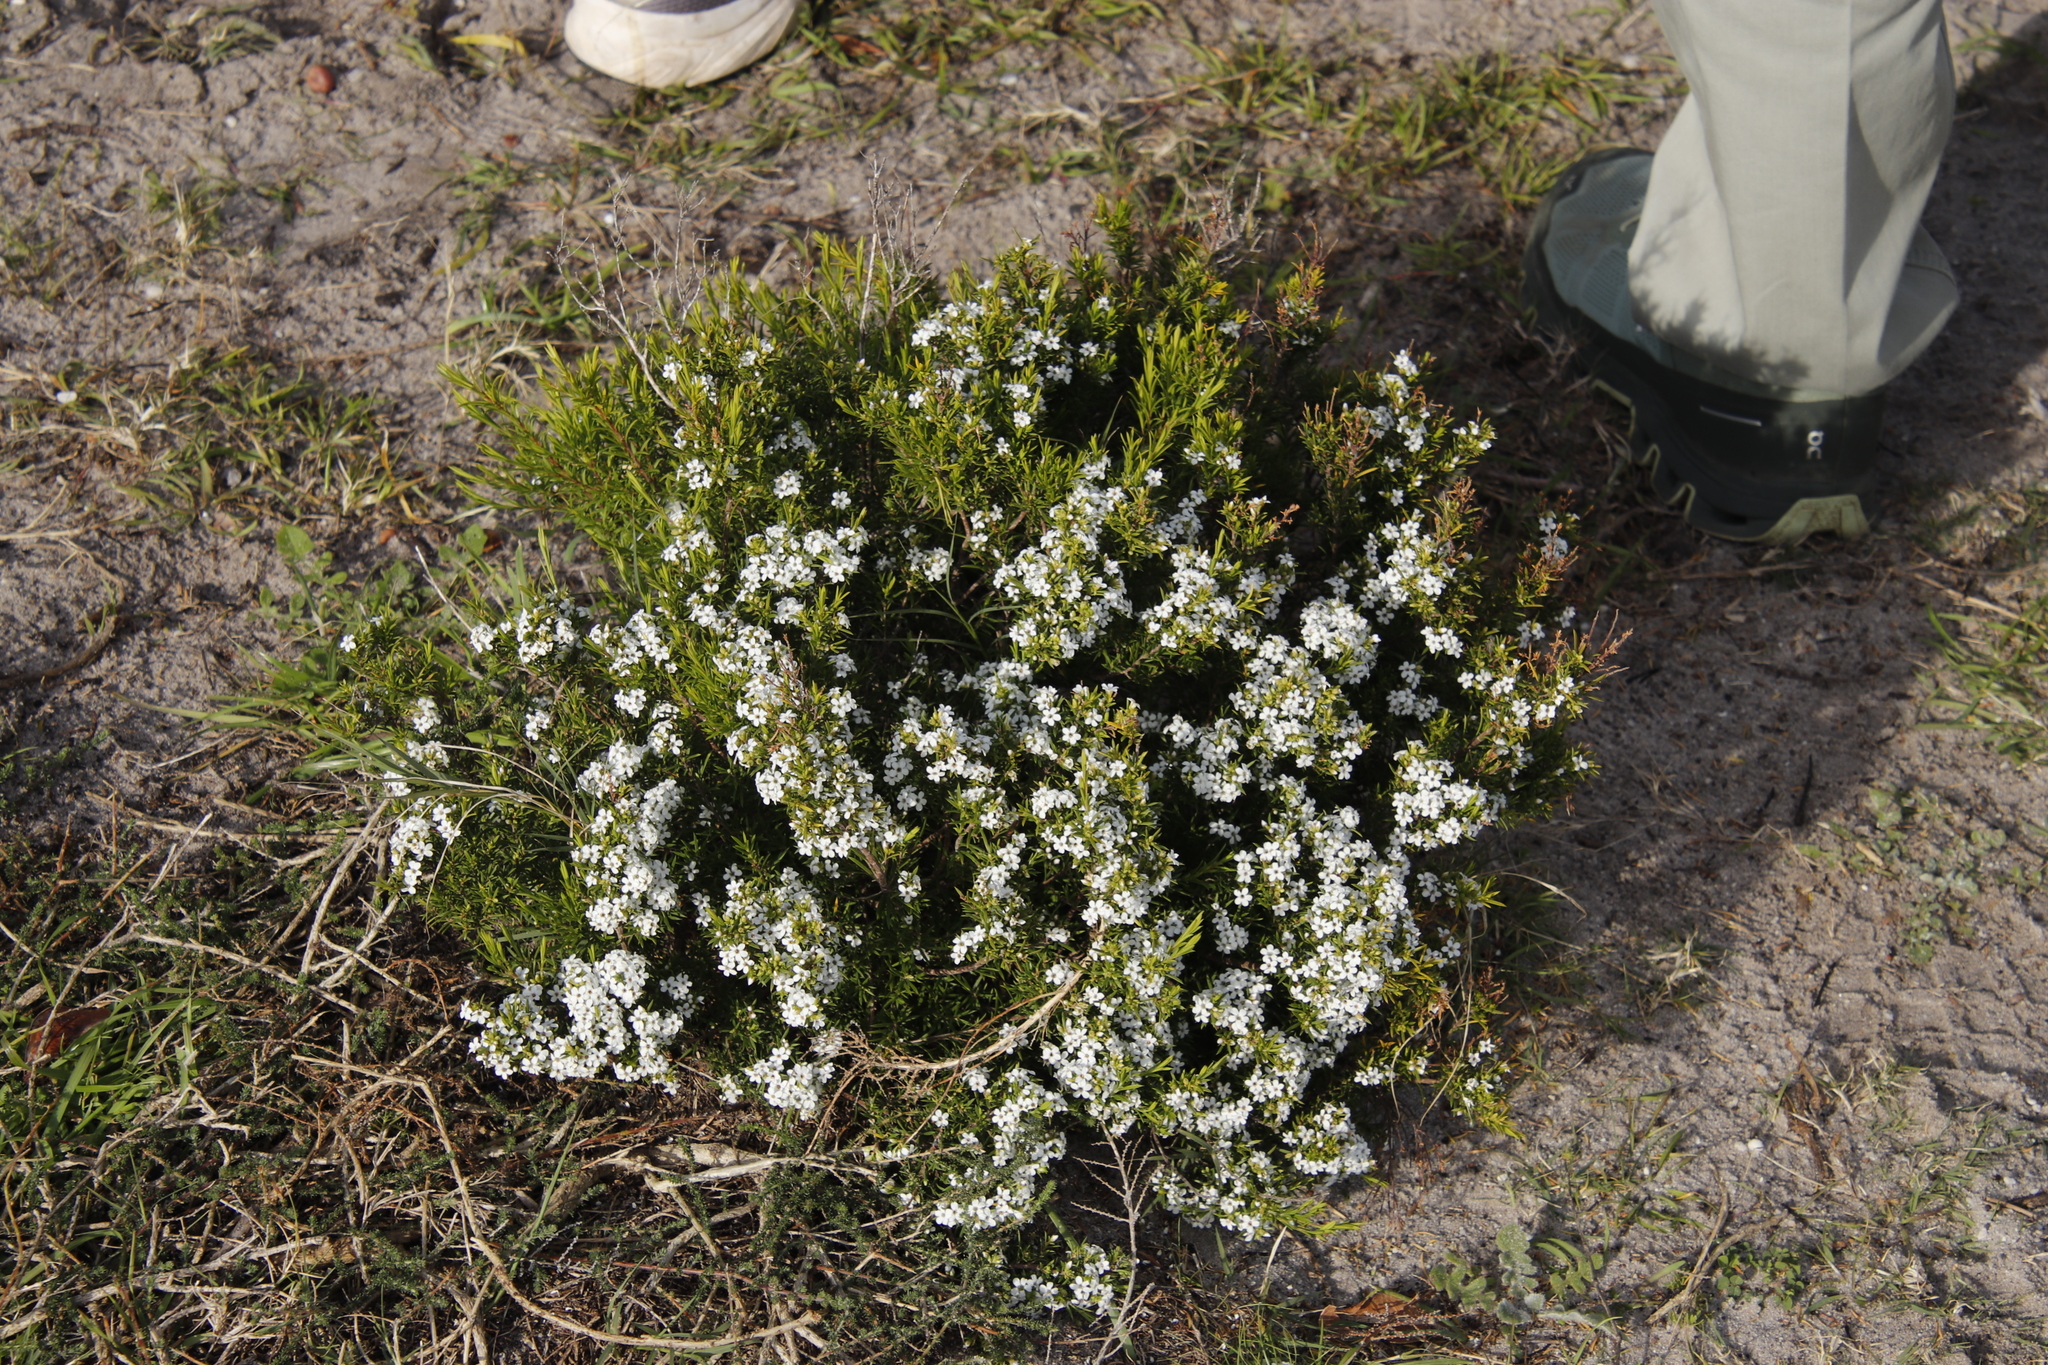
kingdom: Plantae
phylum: Tracheophyta
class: Magnoliopsida
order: Sapindales
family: Rutaceae
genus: Coleonema
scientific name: Coleonema album
